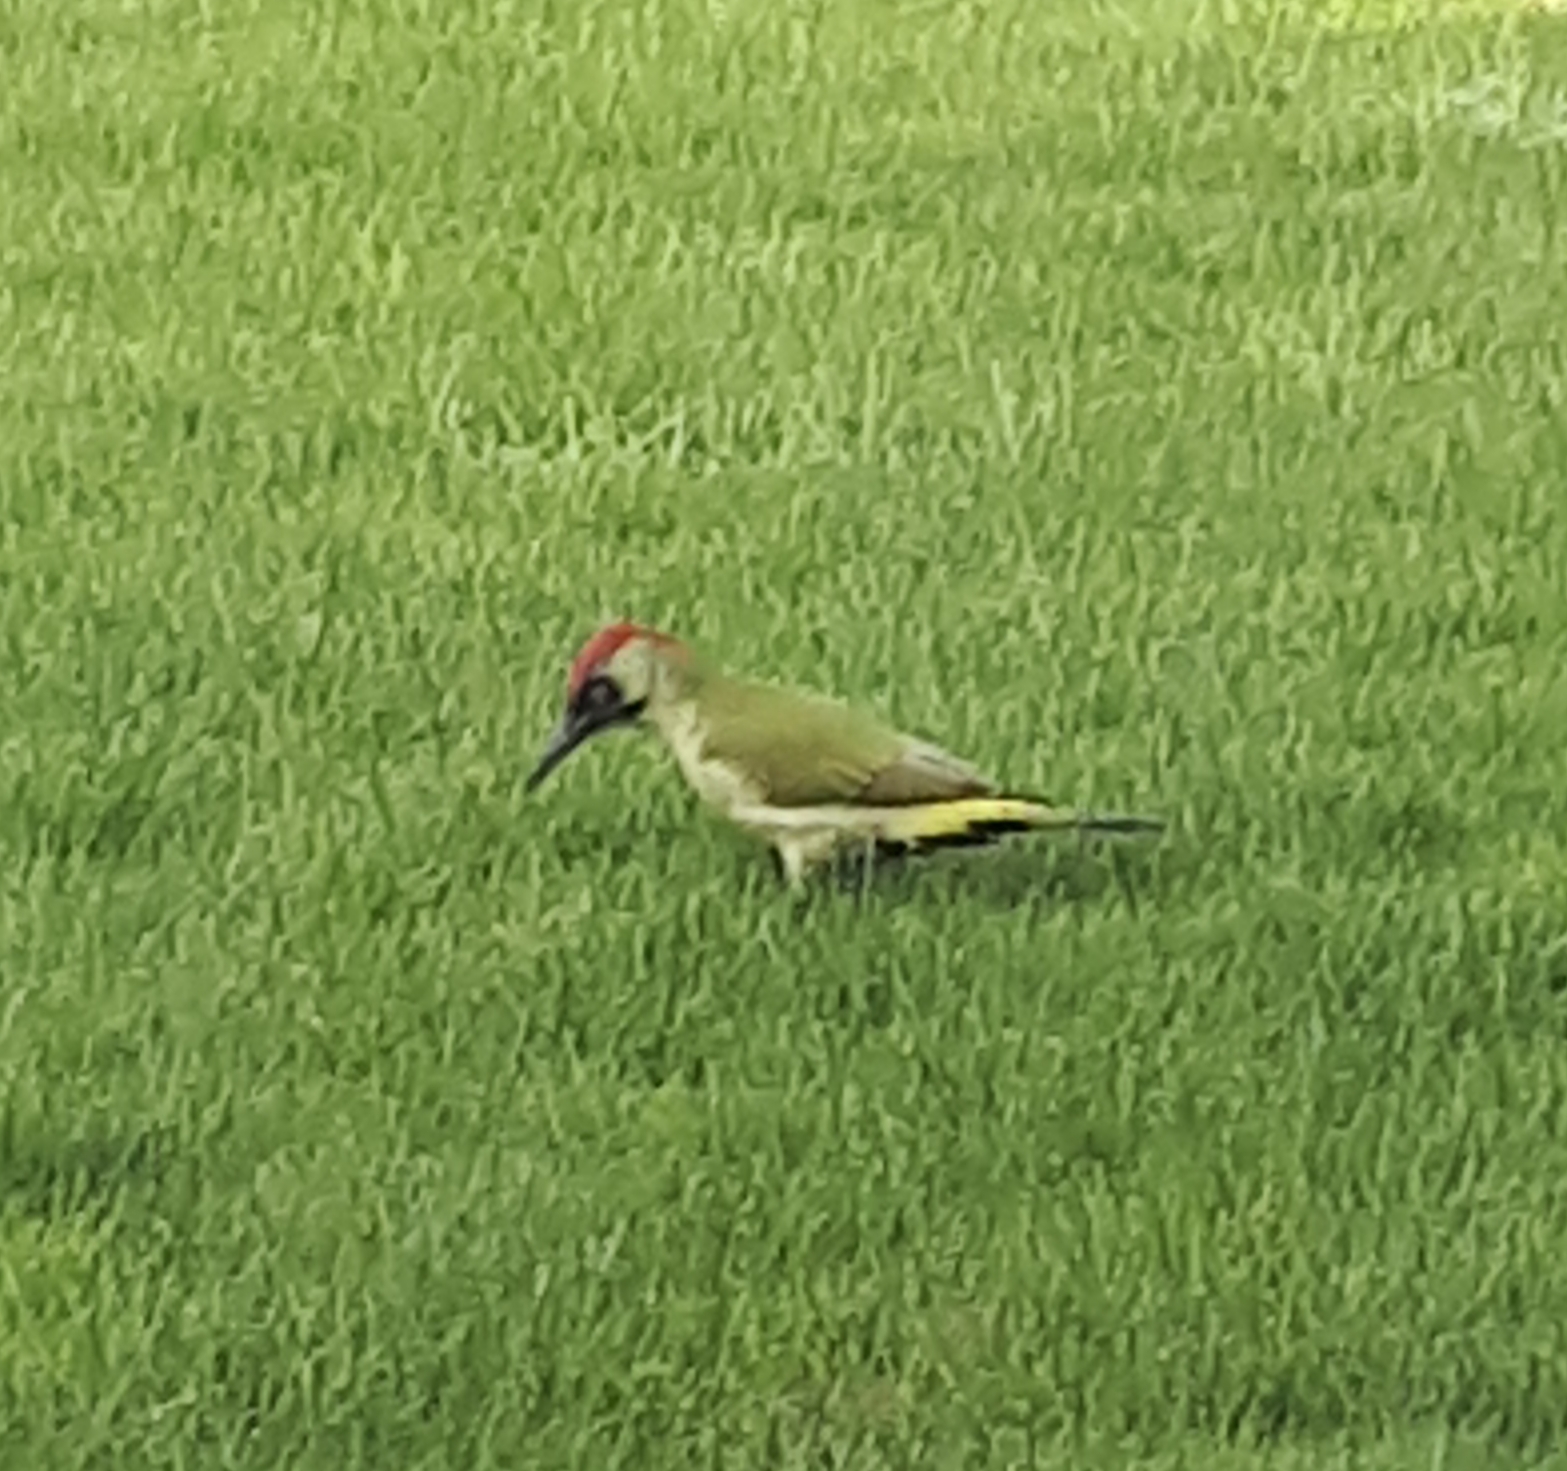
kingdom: Animalia
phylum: Chordata
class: Aves
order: Piciformes
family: Picidae
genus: Picus
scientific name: Picus viridis
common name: European green woodpecker
